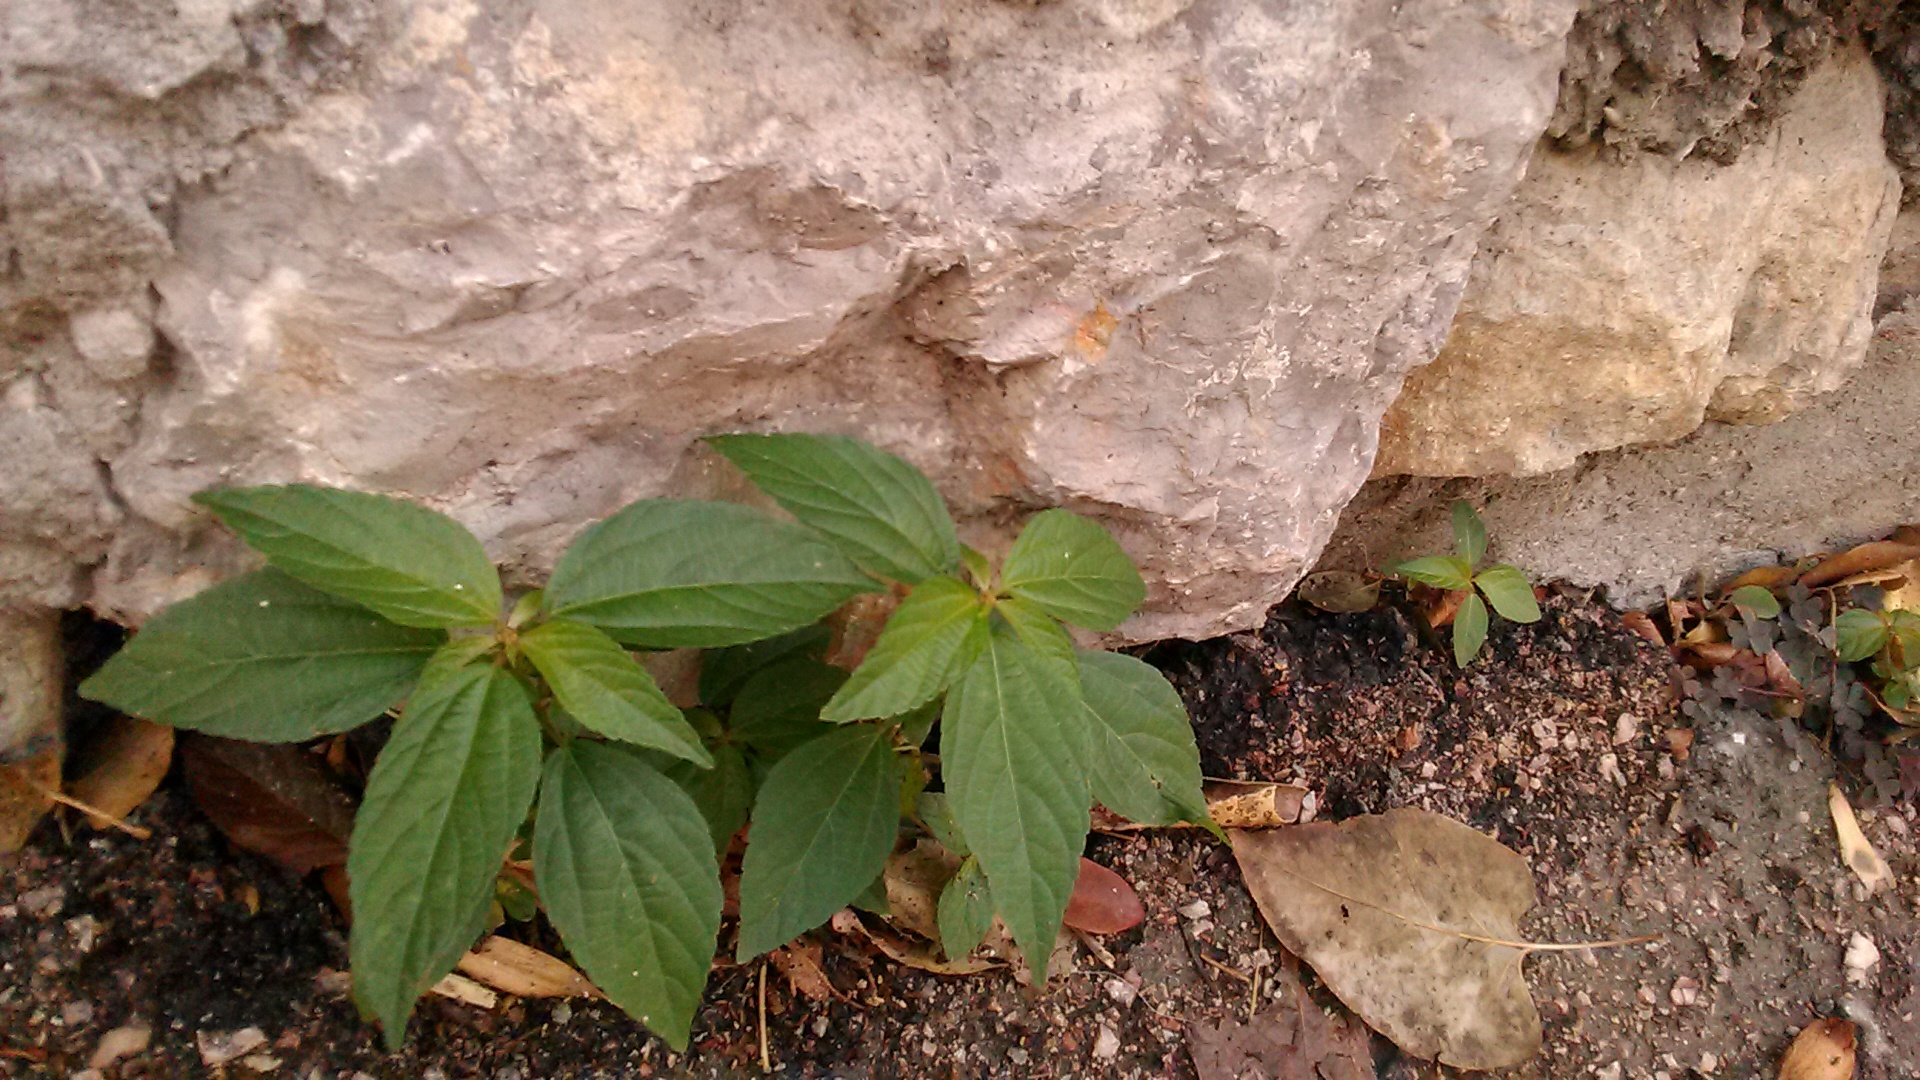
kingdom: Plantae
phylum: Tracheophyta
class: Magnoliopsida
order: Malpighiales
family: Euphorbiaceae
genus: Acalypha
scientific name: Acalypha australis
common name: Asian copperleaf
